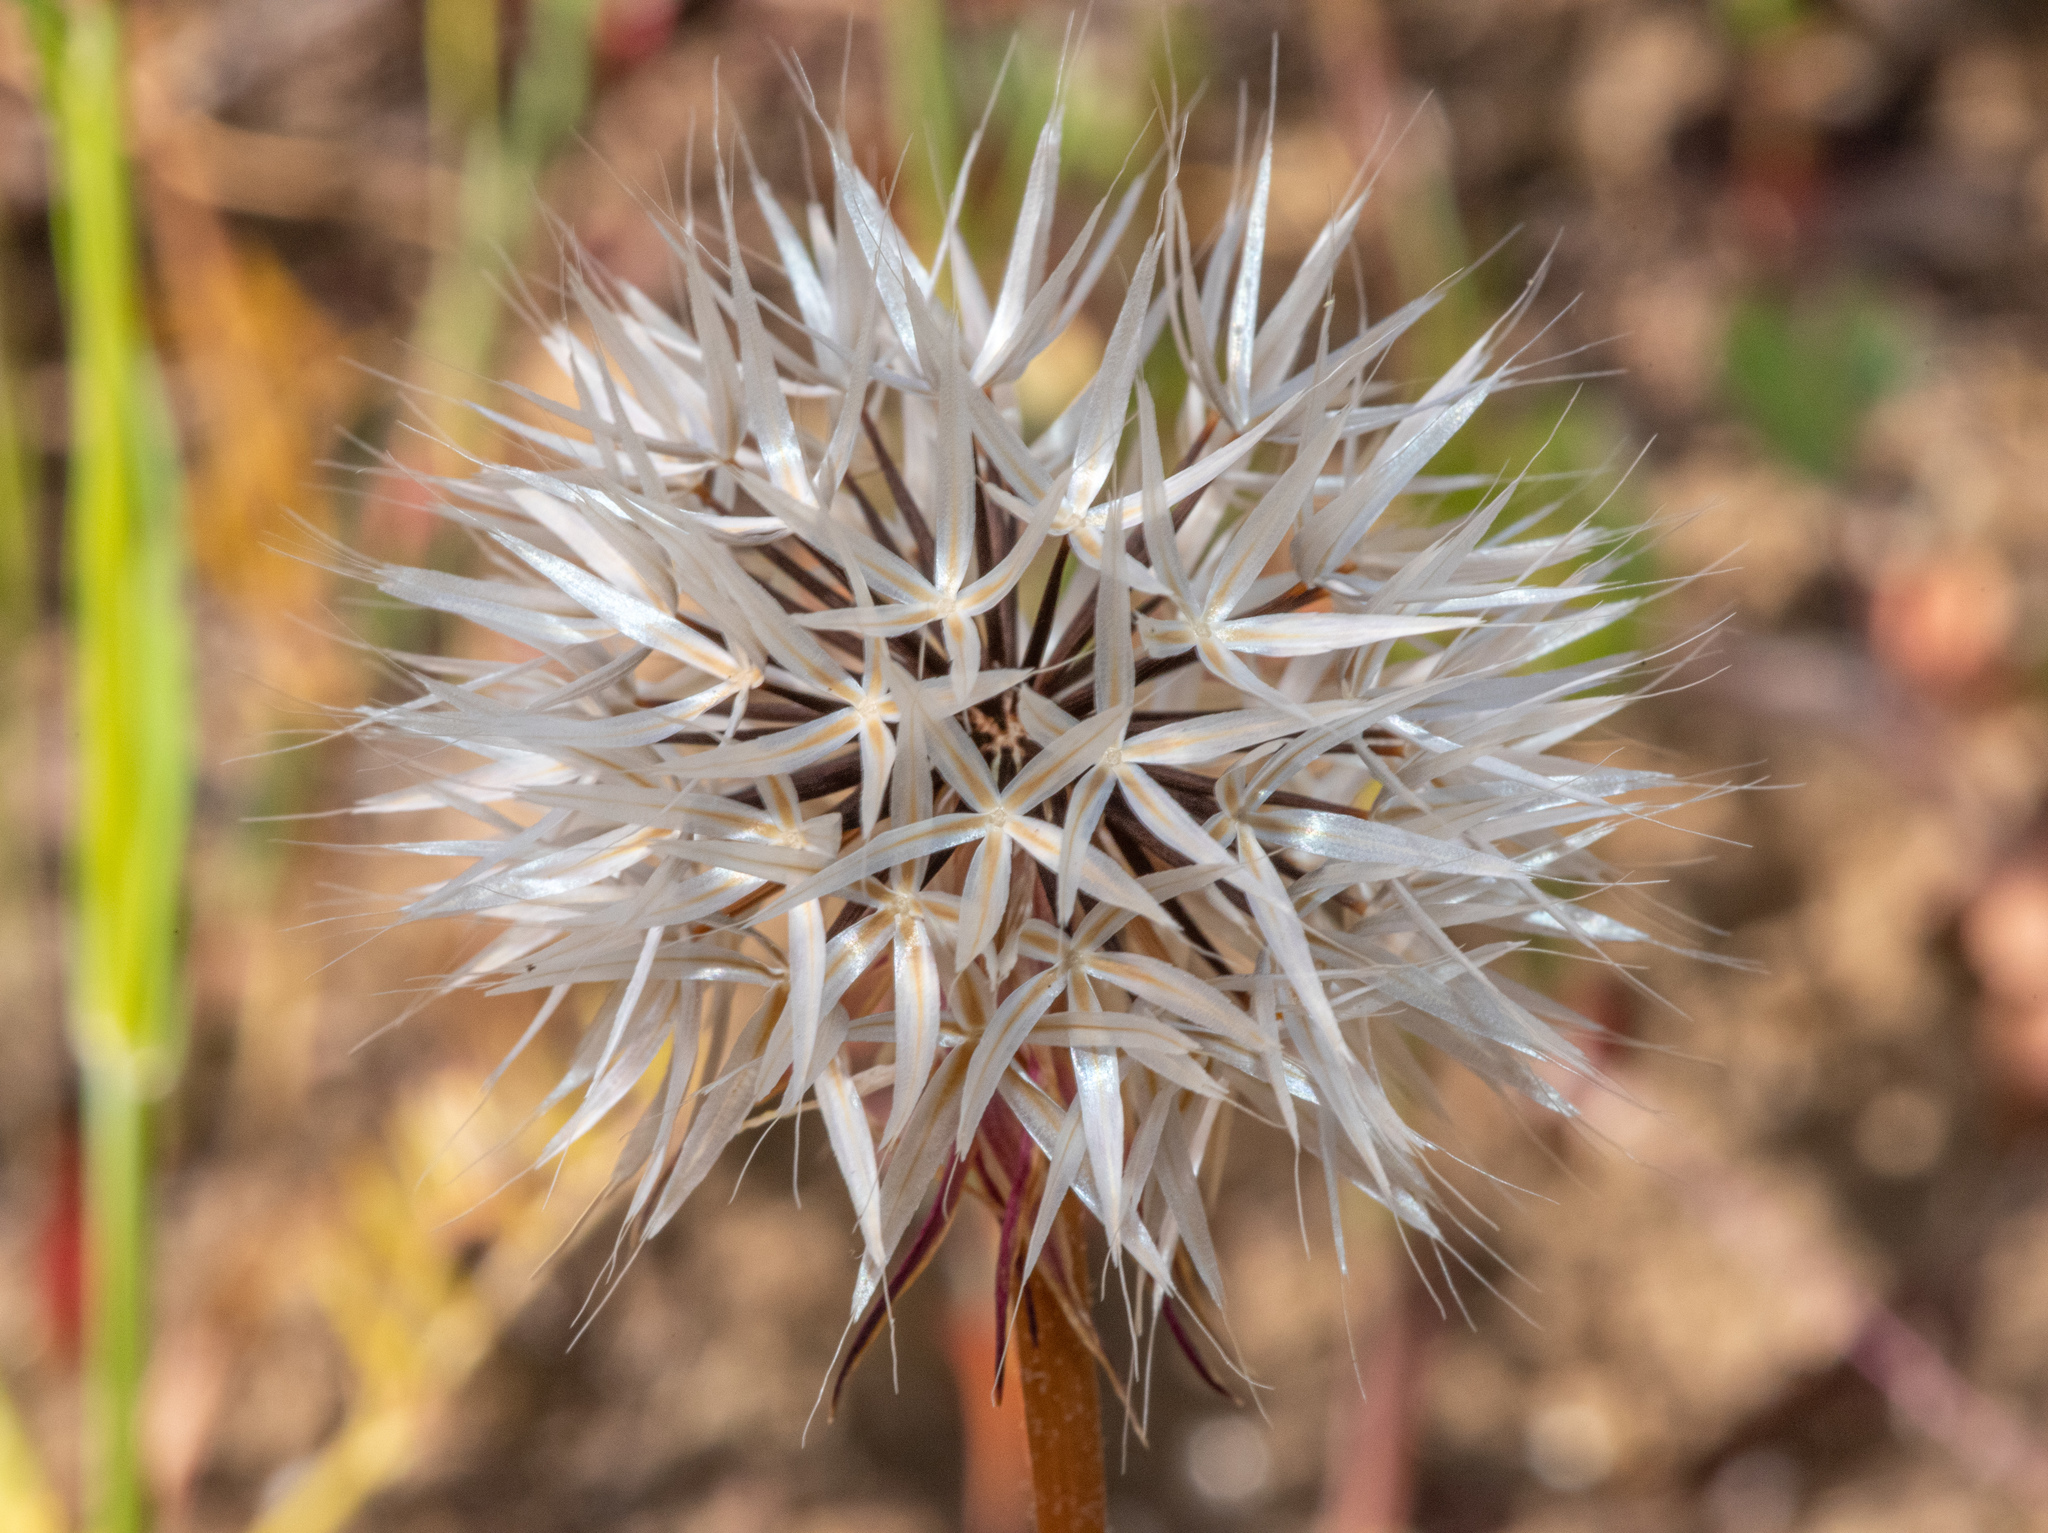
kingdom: Plantae
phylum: Tracheophyta
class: Magnoliopsida
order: Asterales
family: Asteraceae
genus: Microseris
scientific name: Microseris lindleyi
